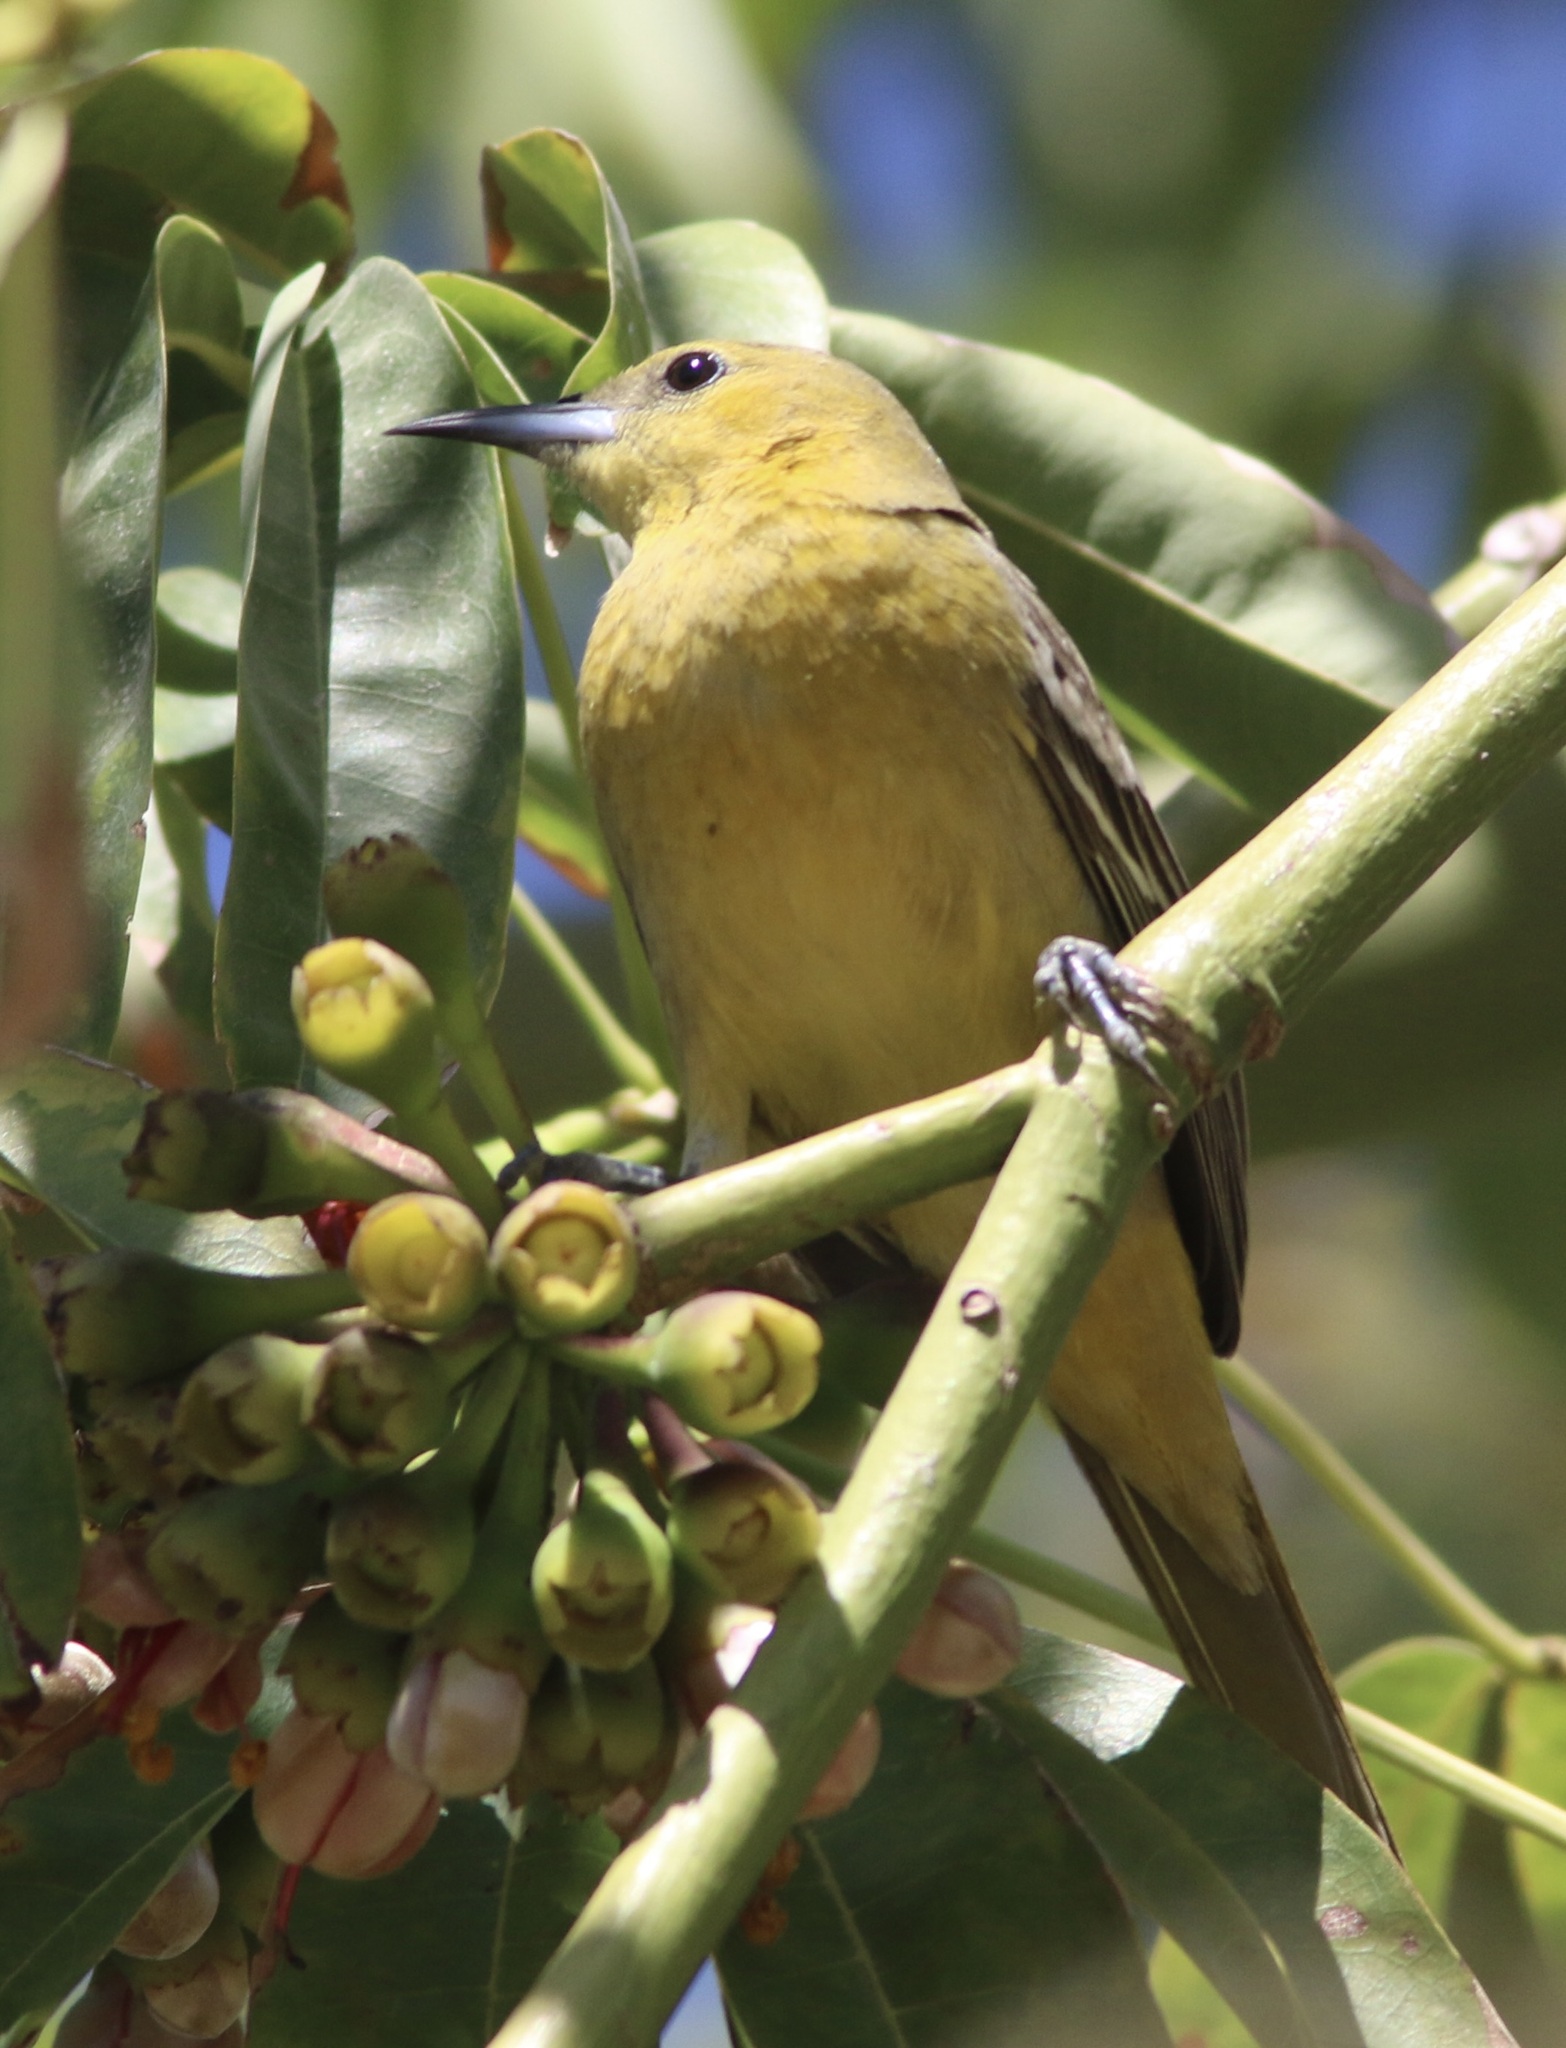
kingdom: Animalia
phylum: Chordata
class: Aves
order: Passeriformes
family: Icteridae
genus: Icterus
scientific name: Icterus cucullatus
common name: Hooded oriole
